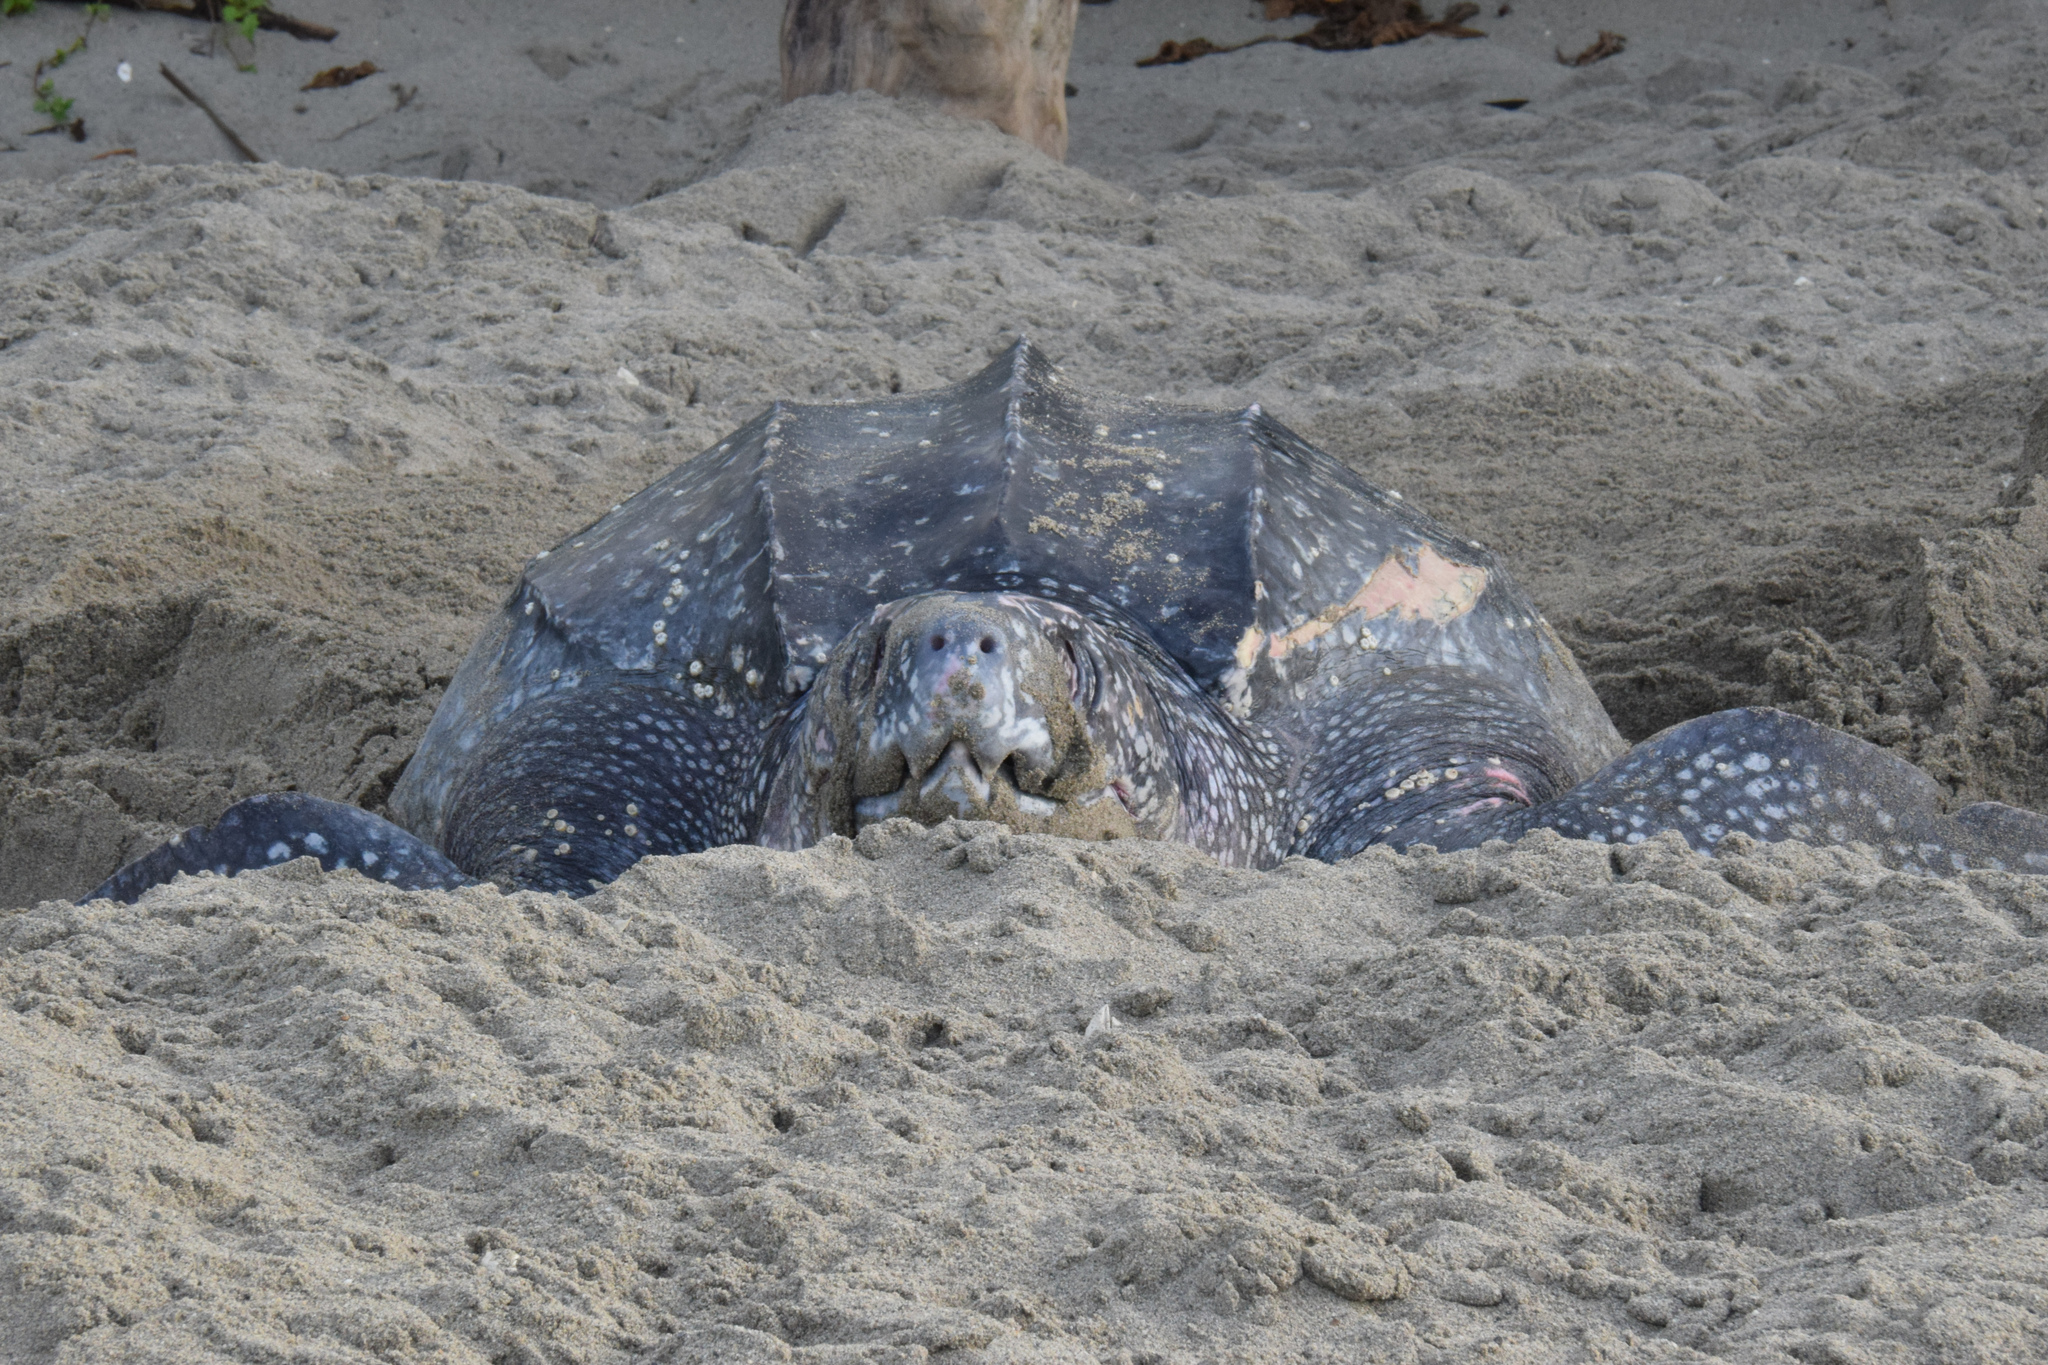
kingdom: Animalia
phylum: Chordata
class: Testudines
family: Dermochelyidae
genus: Dermochelys
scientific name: Dermochelys coriacea
